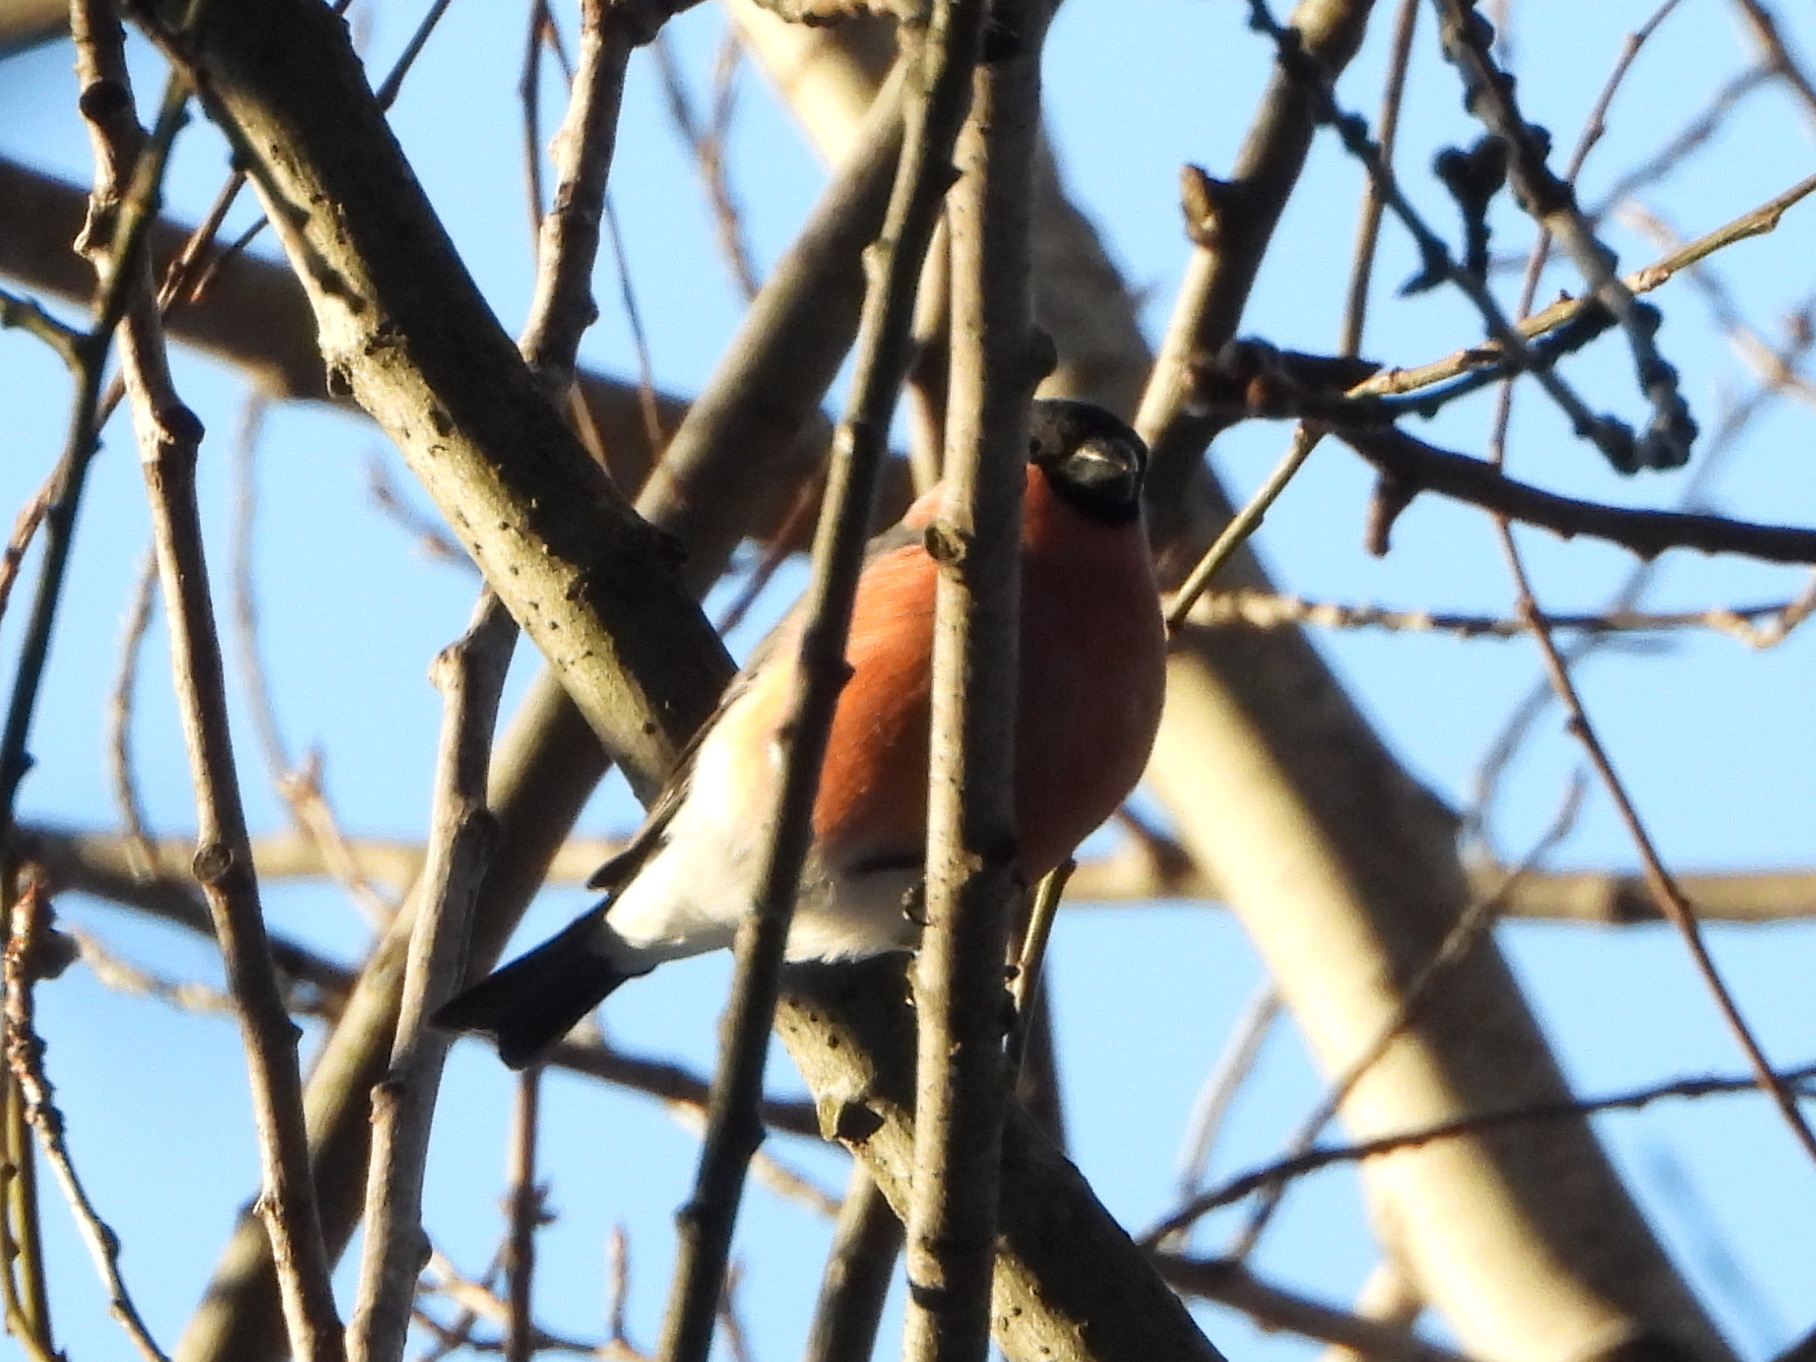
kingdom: Animalia
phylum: Chordata
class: Aves
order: Passeriformes
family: Fringillidae
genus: Pyrrhula
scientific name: Pyrrhula pyrrhula
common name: Eurasian bullfinch
